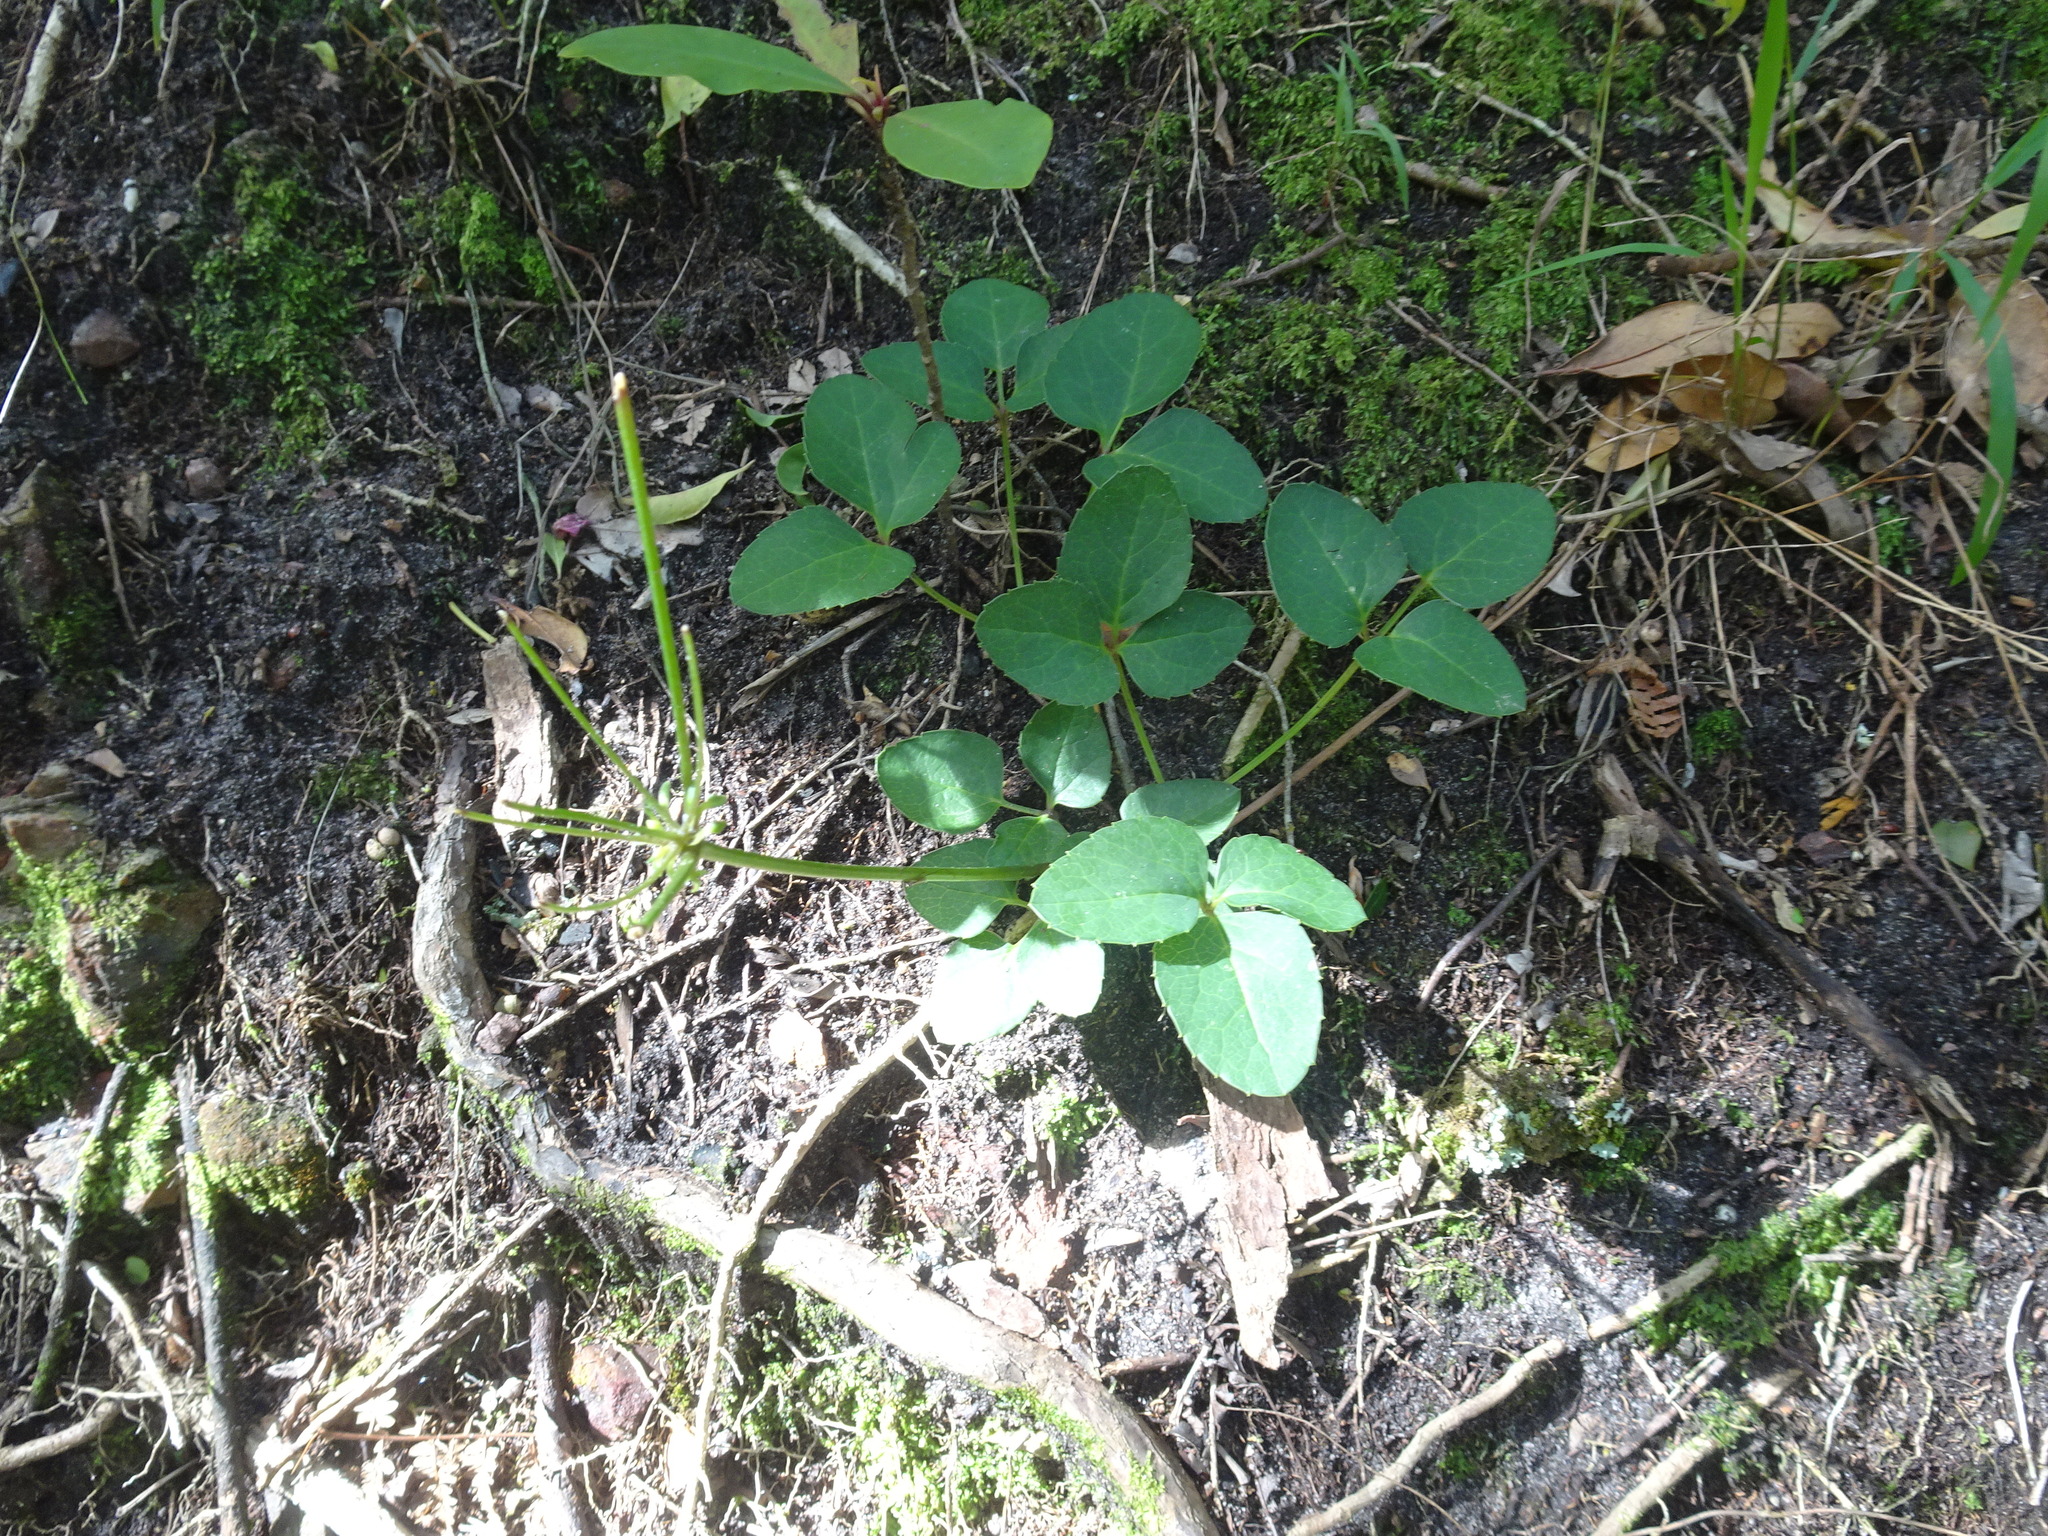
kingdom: Plantae
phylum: Tracheophyta
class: Magnoliopsida
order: Ranunculales
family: Ranunculaceae
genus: Knowltonia
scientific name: Knowltonia vesicatoria
